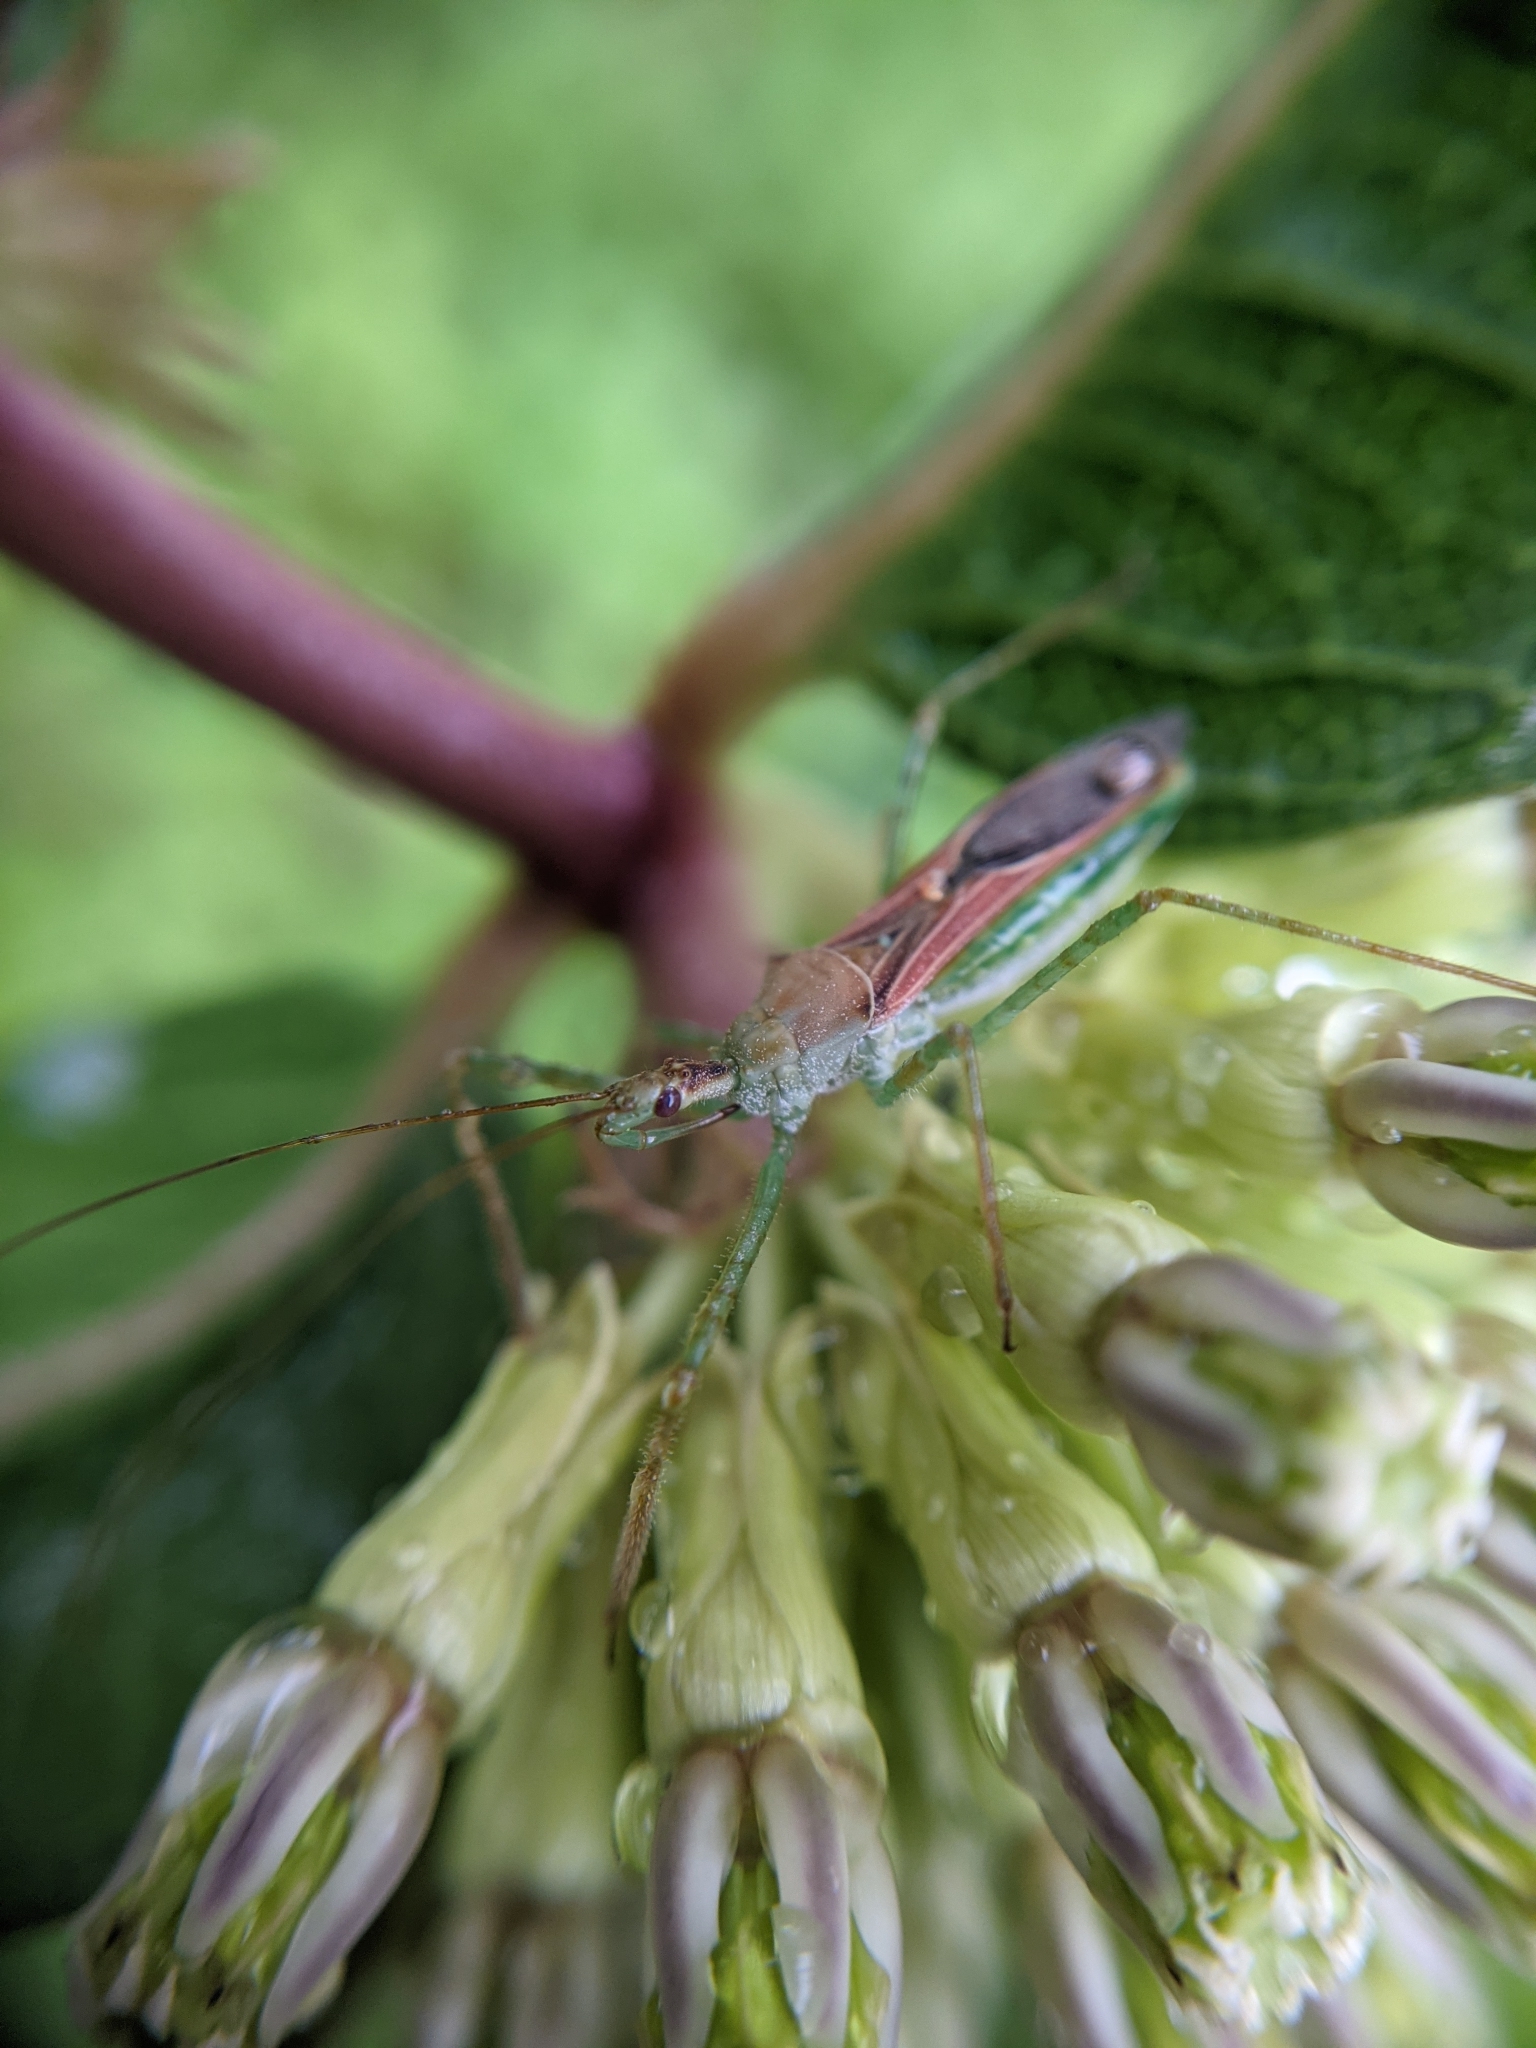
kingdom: Animalia
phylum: Arthropoda
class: Insecta
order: Hemiptera
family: Reduviidae
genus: Zelus
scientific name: Zelus renardii
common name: Assassin bug
